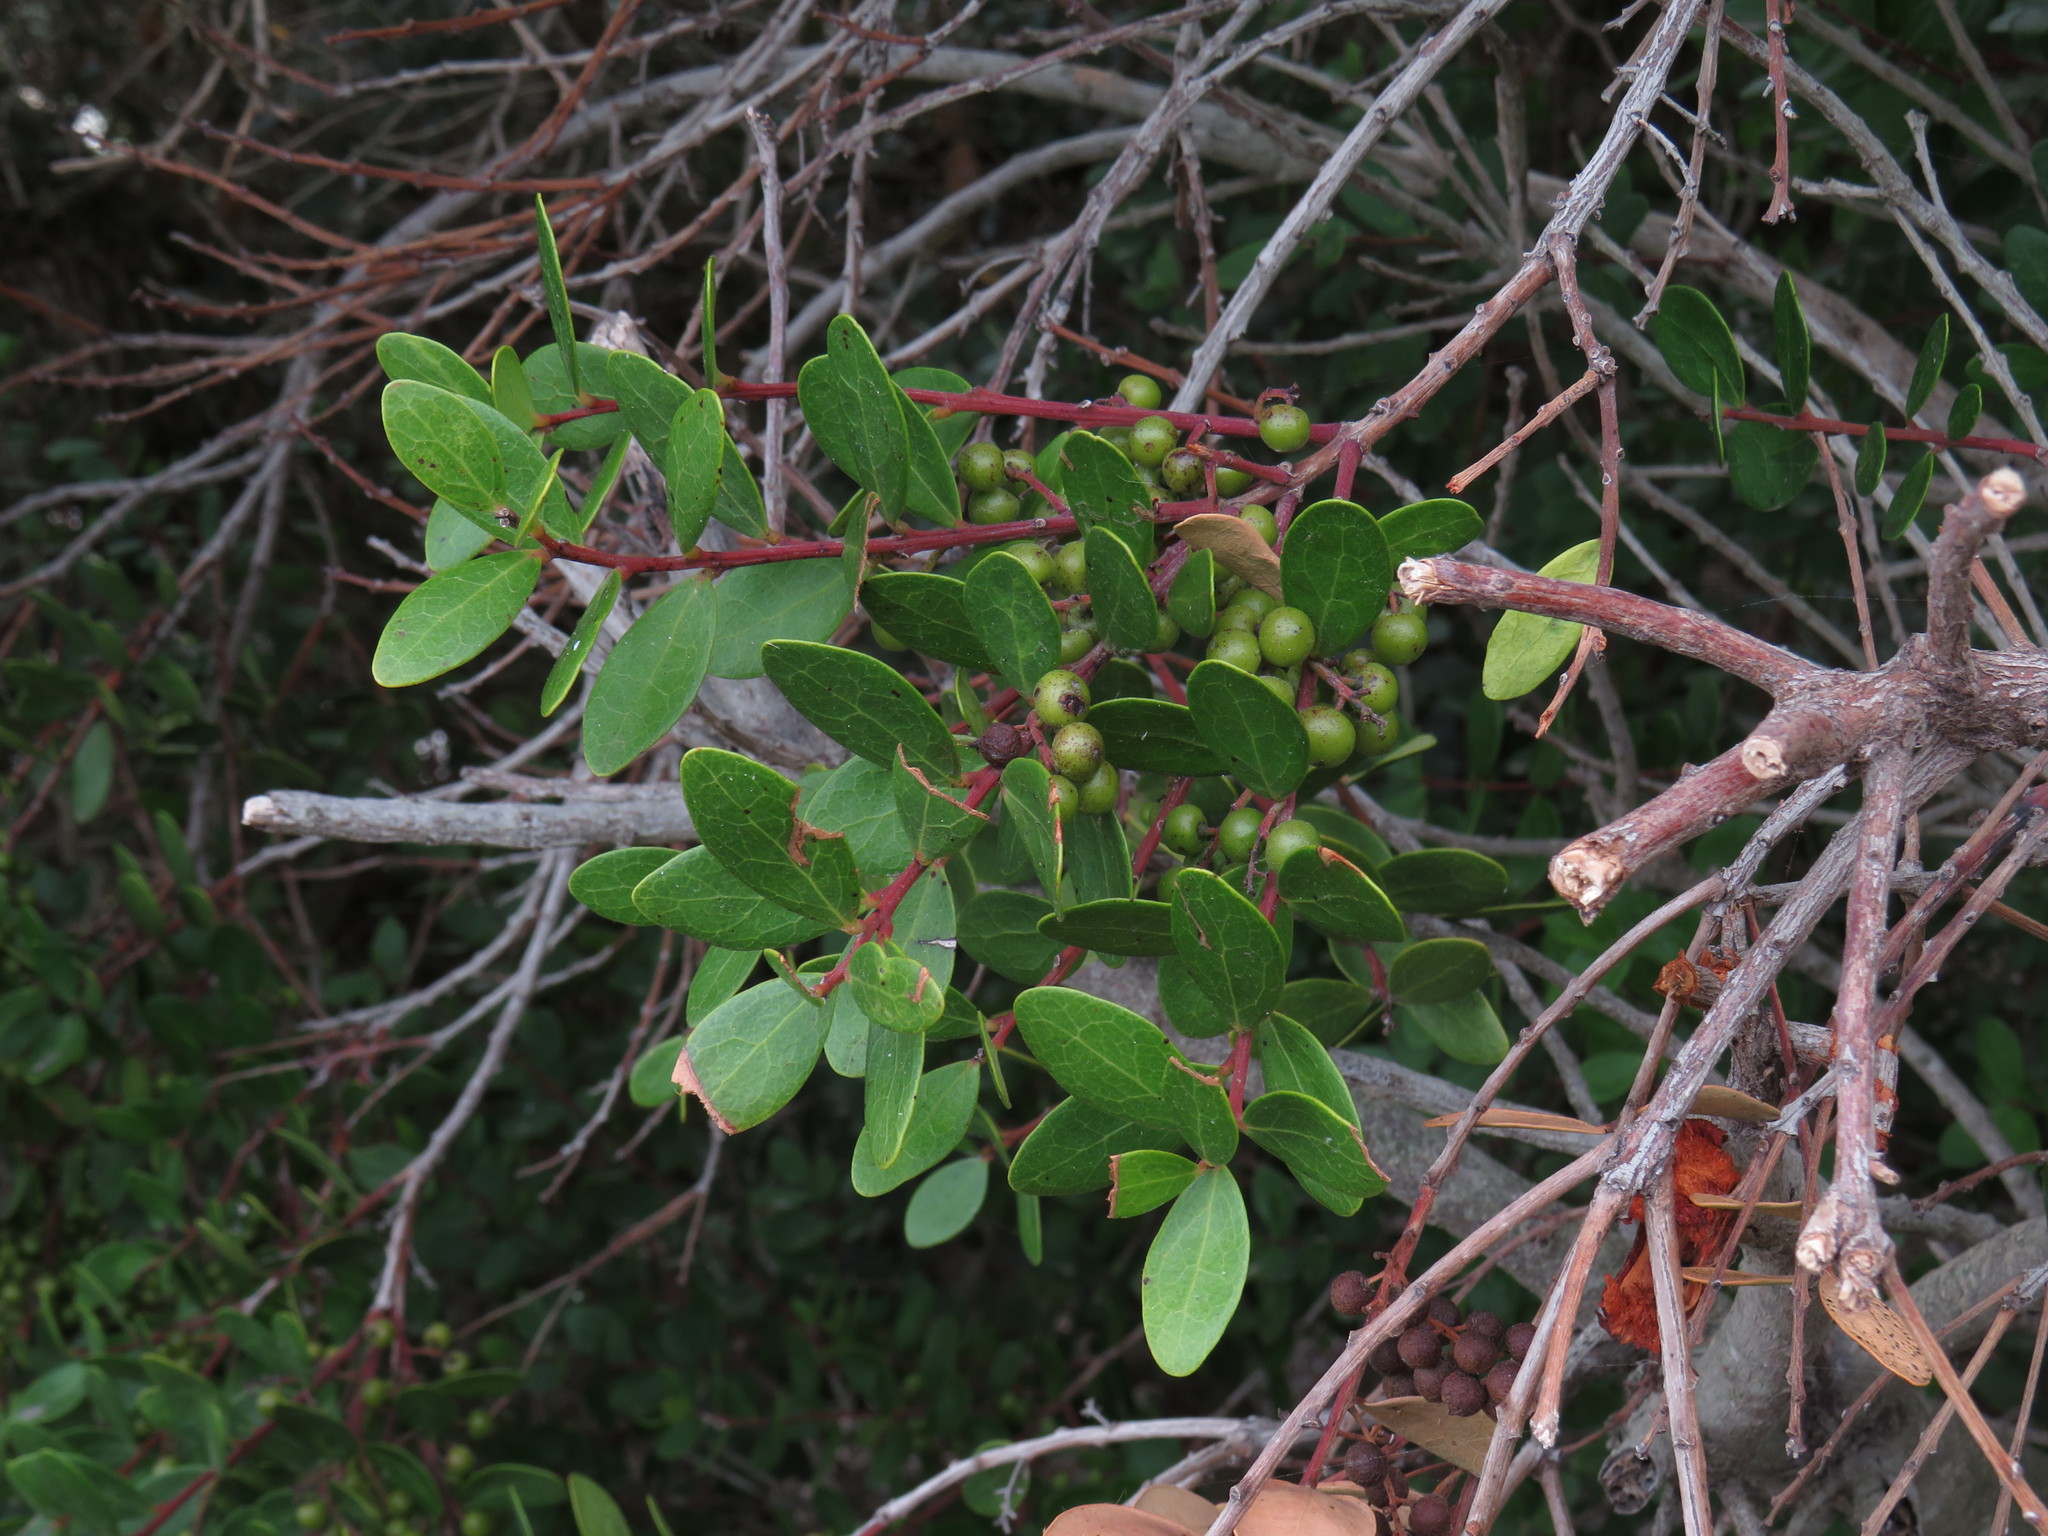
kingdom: Plantae
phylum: Tracheophyta
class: Magnoliopsida
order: Ericales
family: Ebenaceae
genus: Euclea
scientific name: Euclea racemosa
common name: Dune guarri
